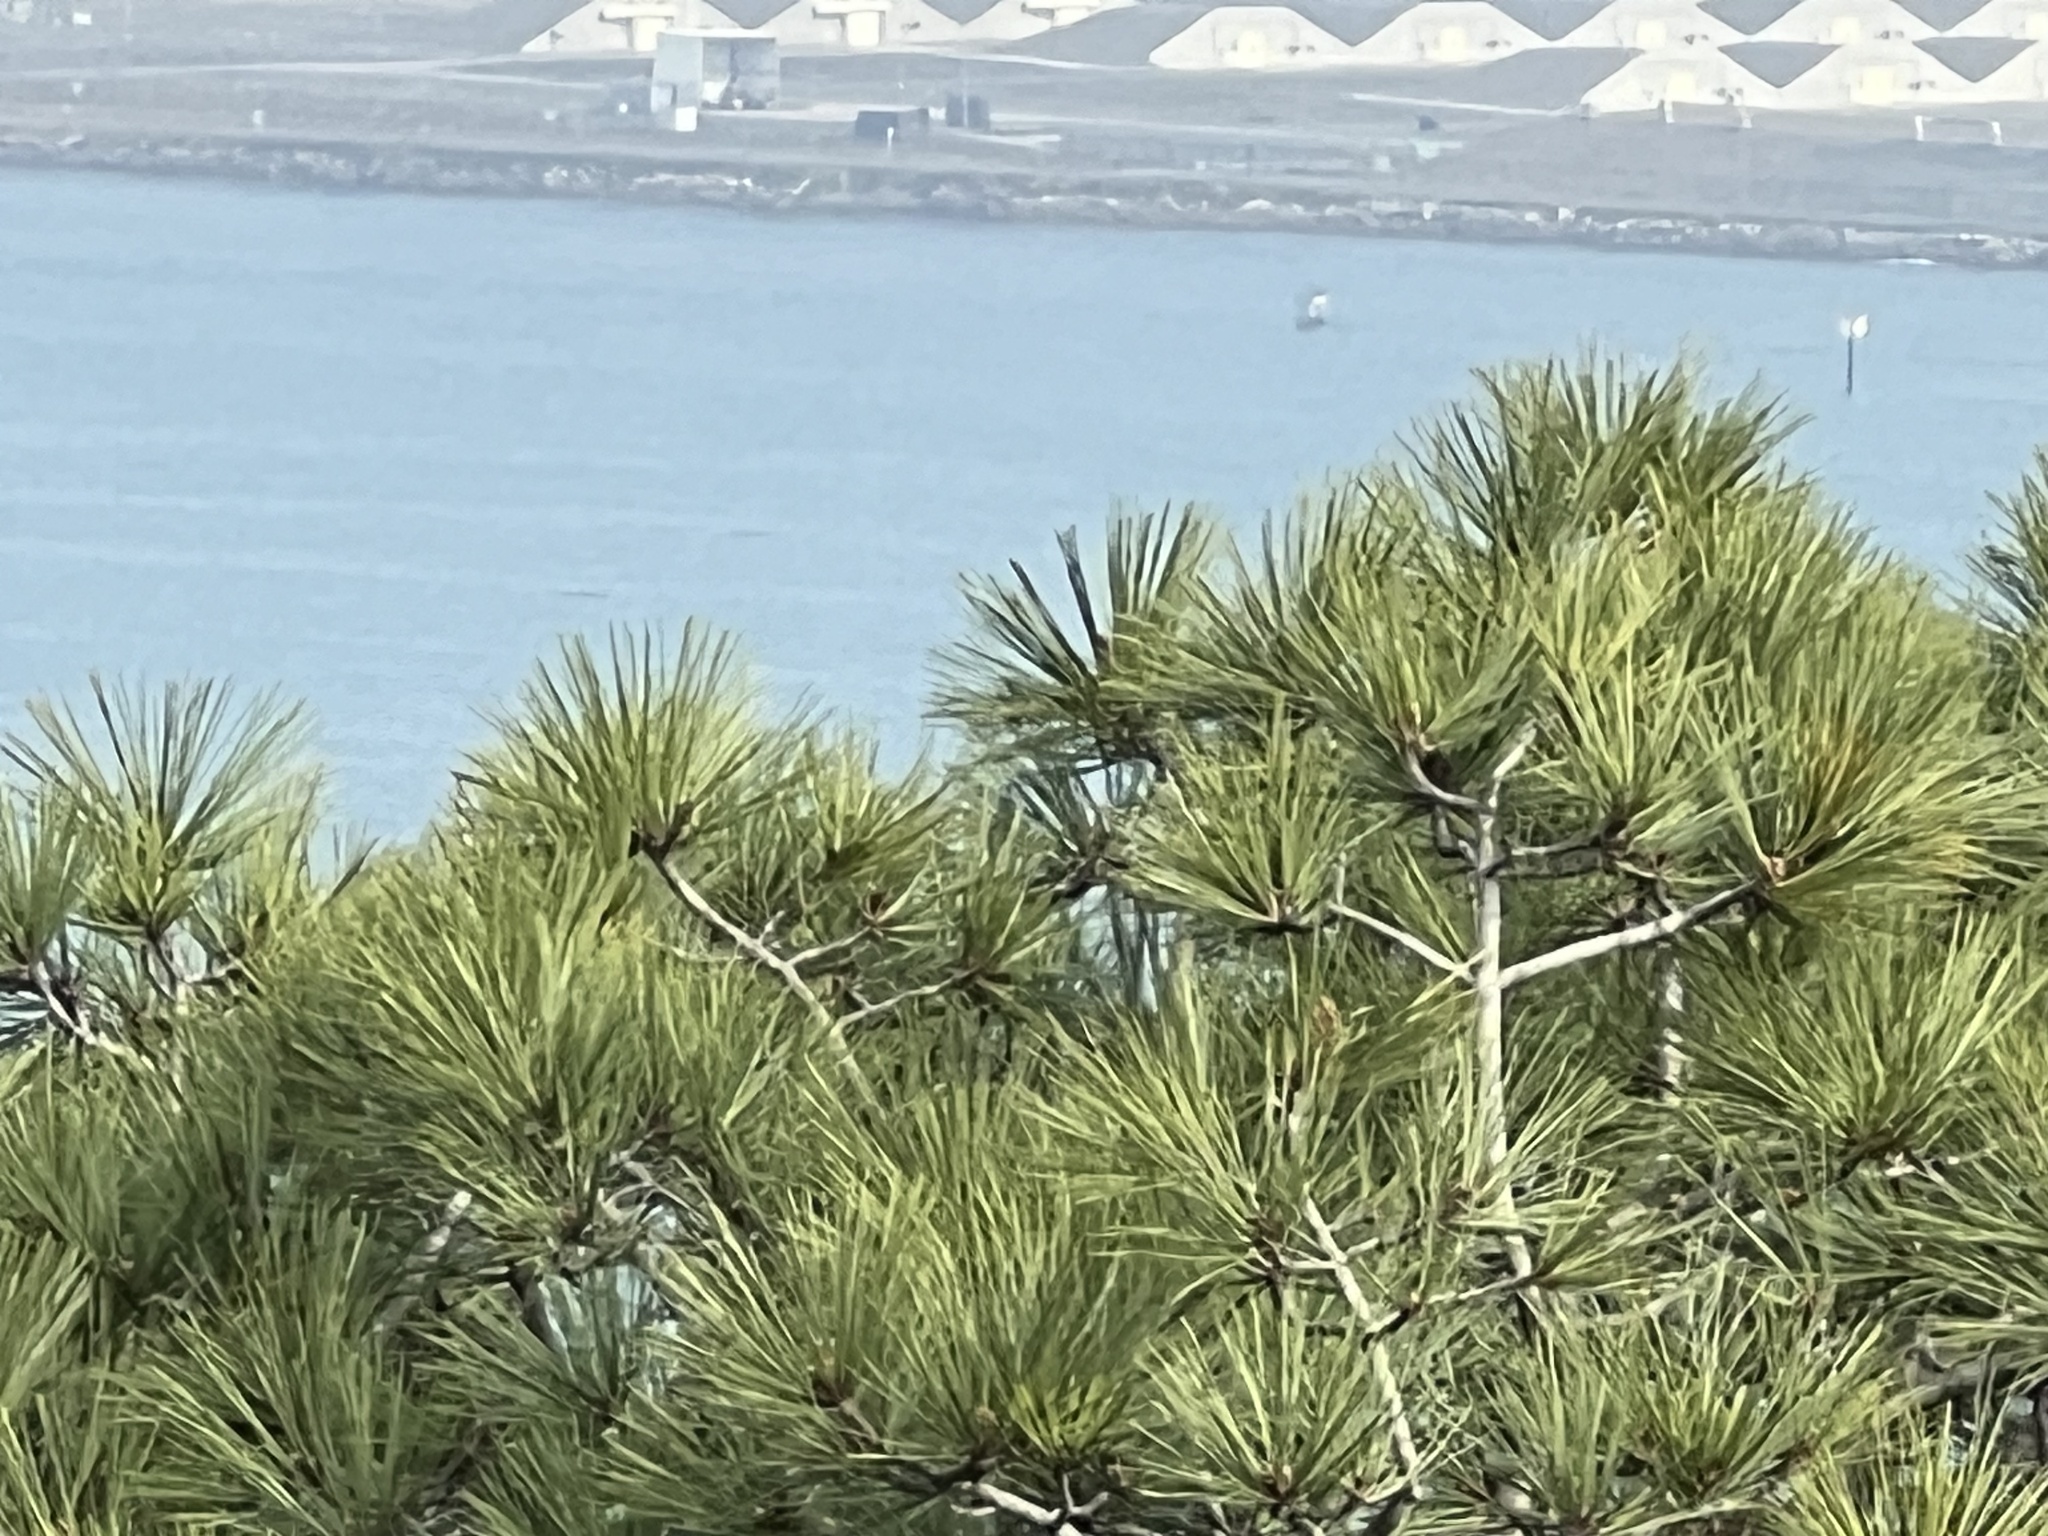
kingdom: Plantae
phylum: Tracheophyta
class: Pinopsida
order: Pinales
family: Pinaceae
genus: Pinus
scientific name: Pinus torreyana
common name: Torrey pine
